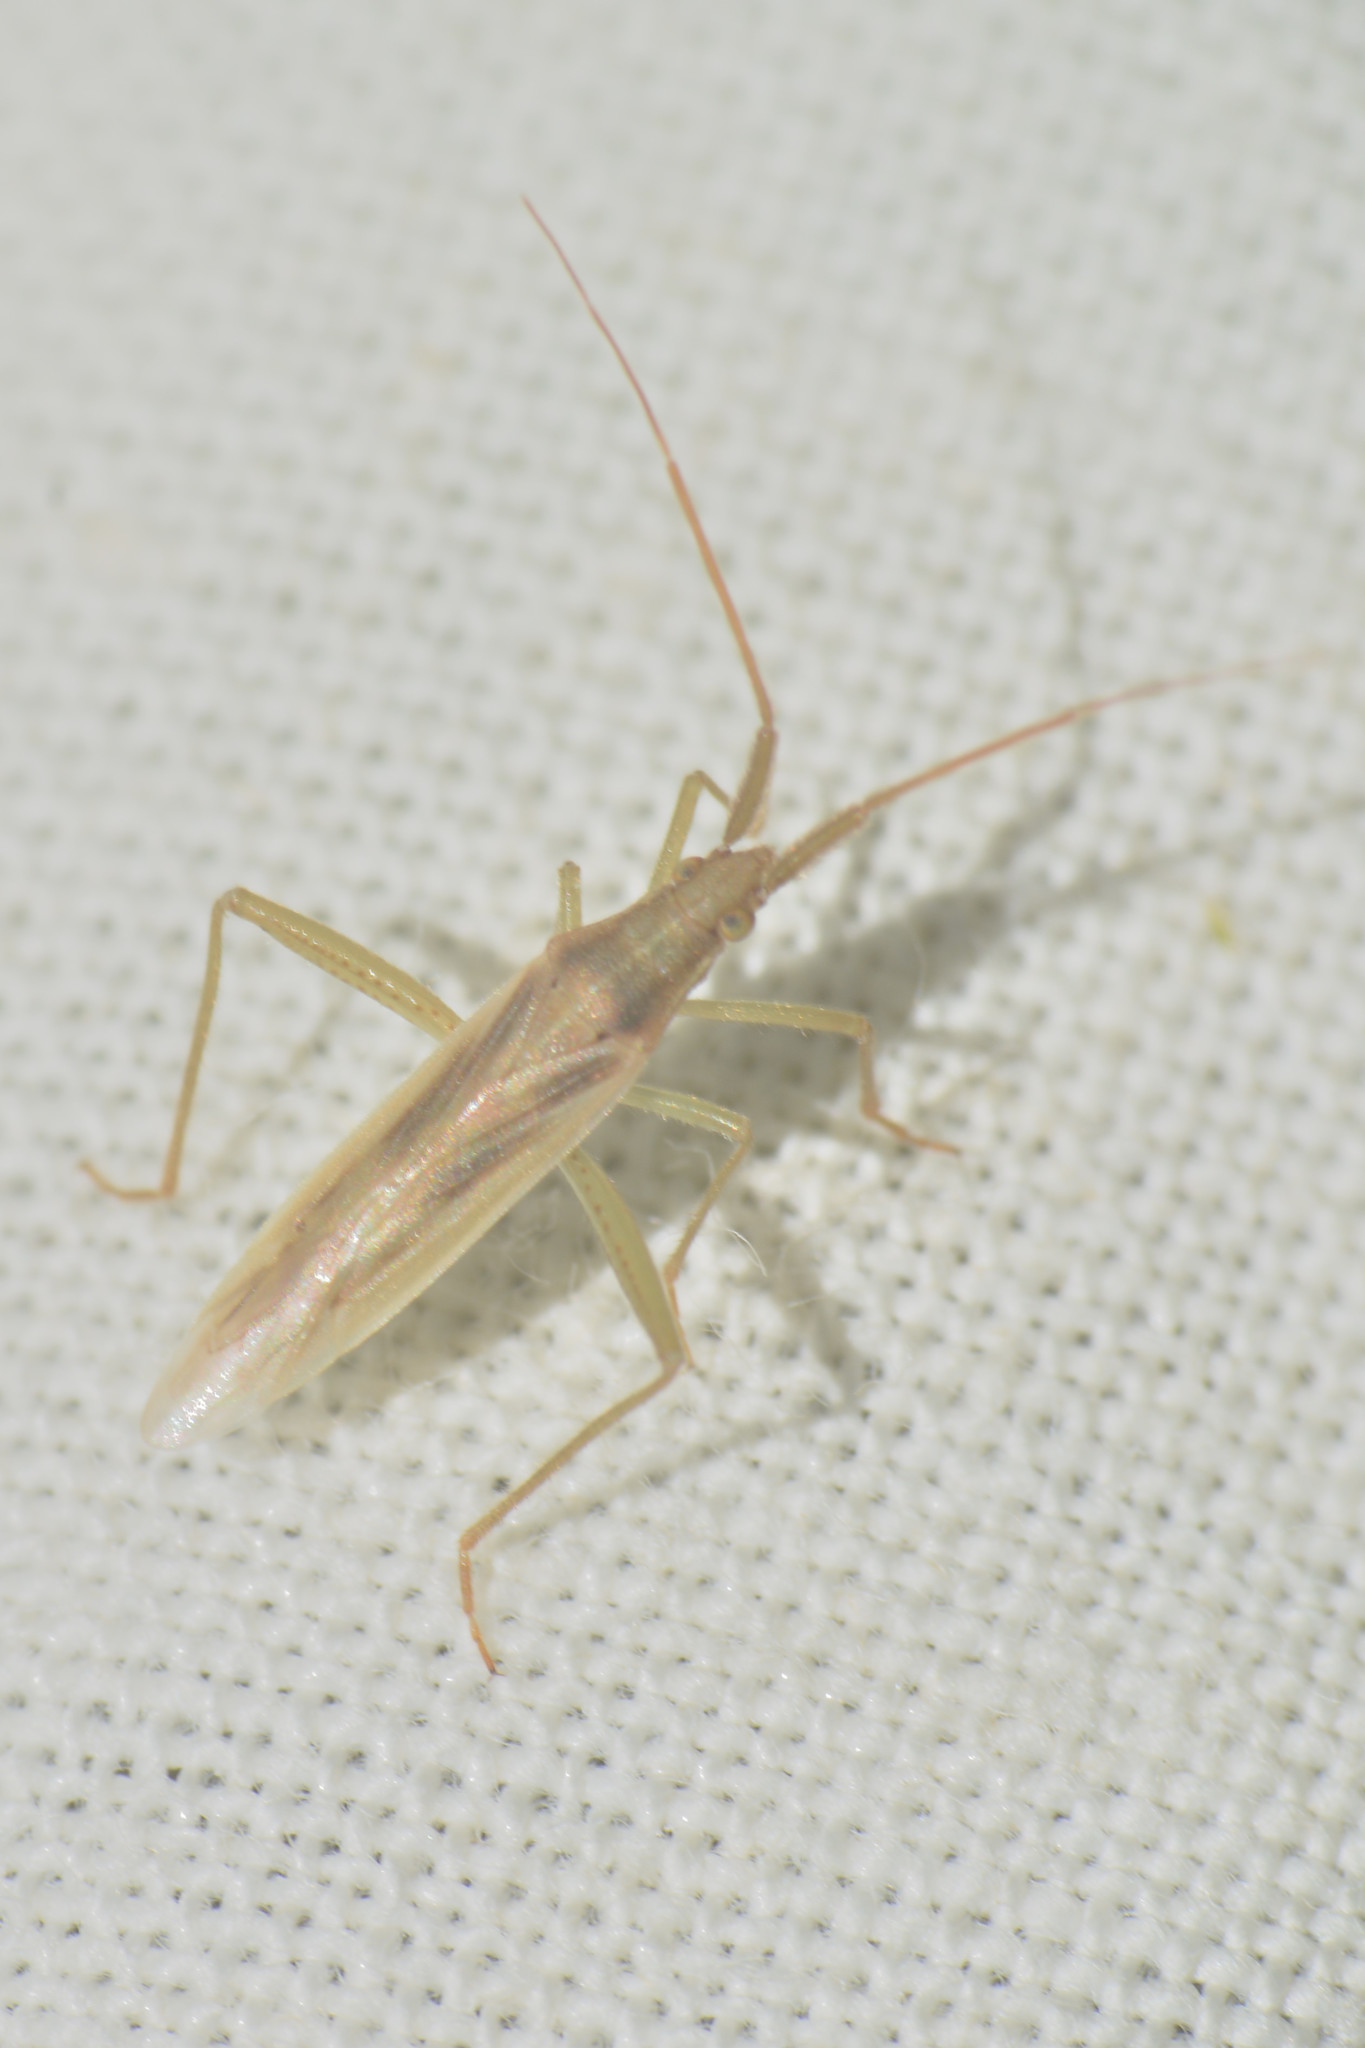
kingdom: Animalia
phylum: Arthropoda
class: Insecta
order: Hemiptera
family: Miridae
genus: Stenodema
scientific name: Stenodema laevigata
